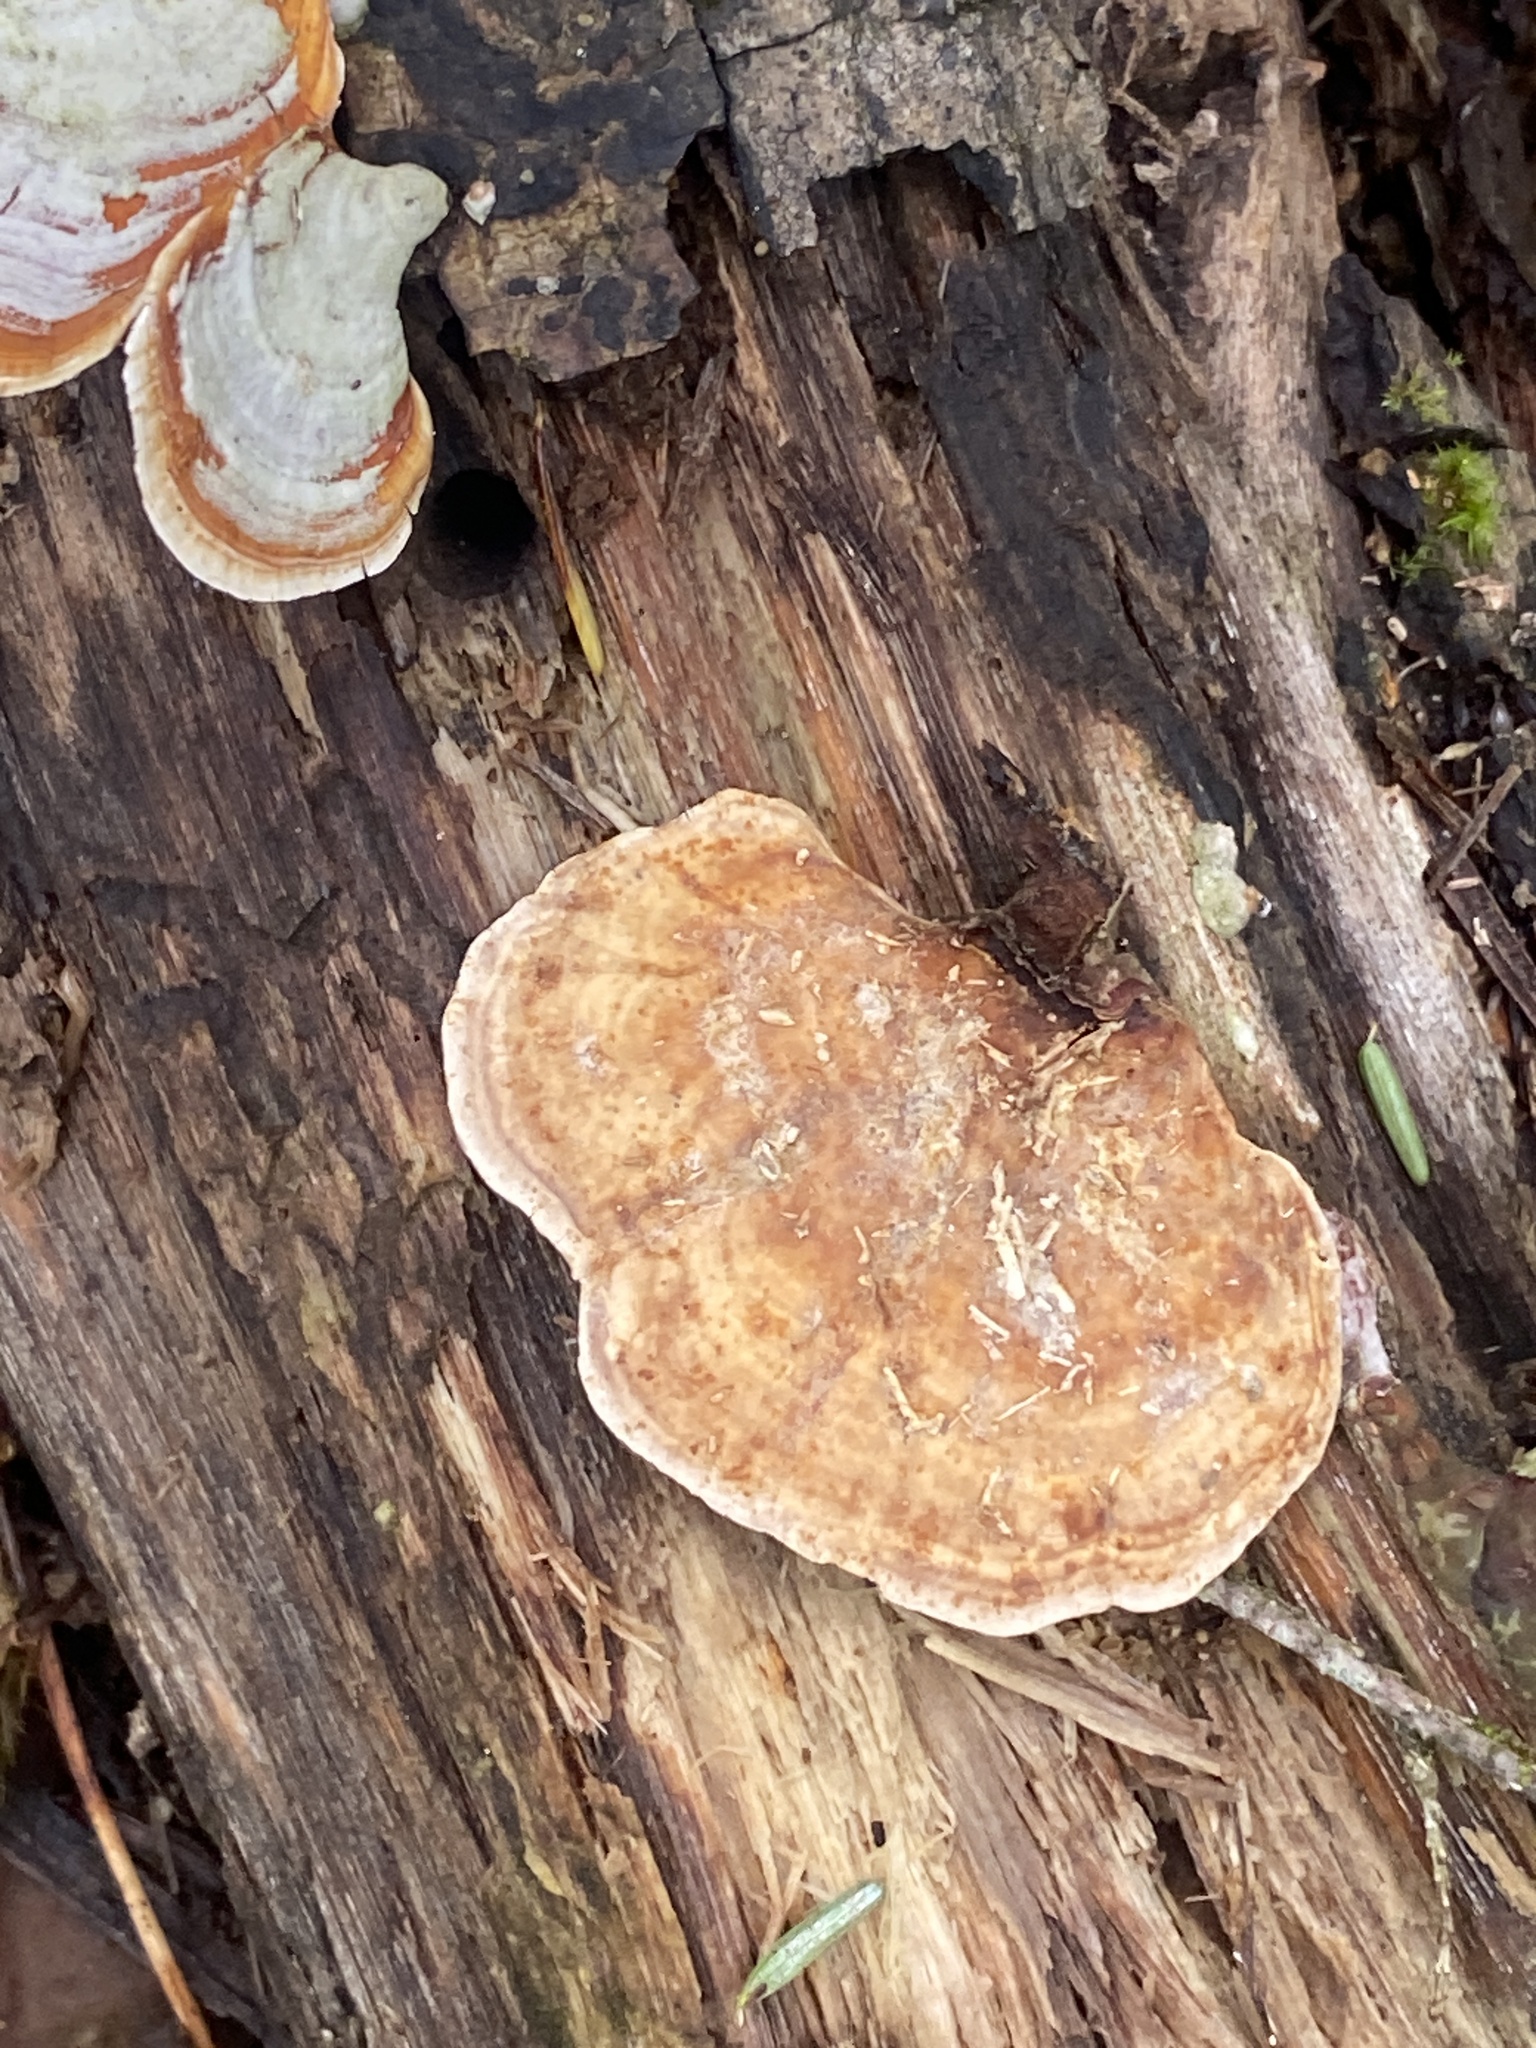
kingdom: Fungi
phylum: Basidiomycota
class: Agaricomycetes
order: Russulales
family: Stereaceae
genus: Stereum
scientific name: Stereum lobatum
